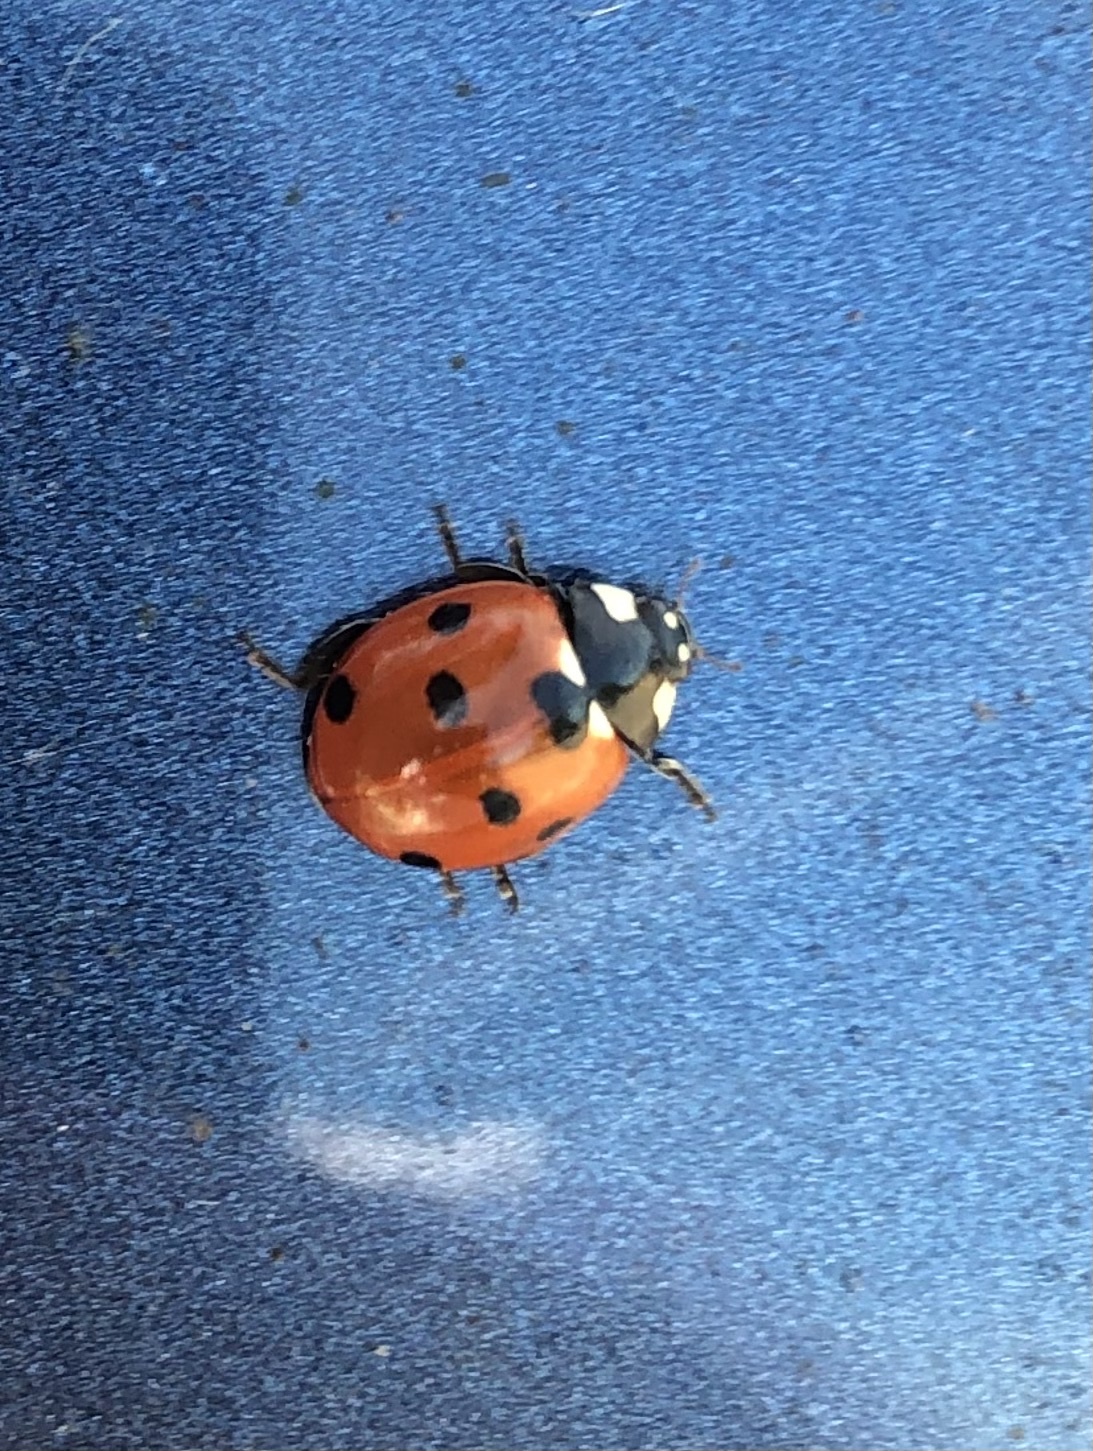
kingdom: Animalia
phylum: Arthropoda
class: Insecta
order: Coleoptera
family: Coccinellidae
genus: Coccinella
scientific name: Coccinella septempunctata
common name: Sevenspotted lady beetle
